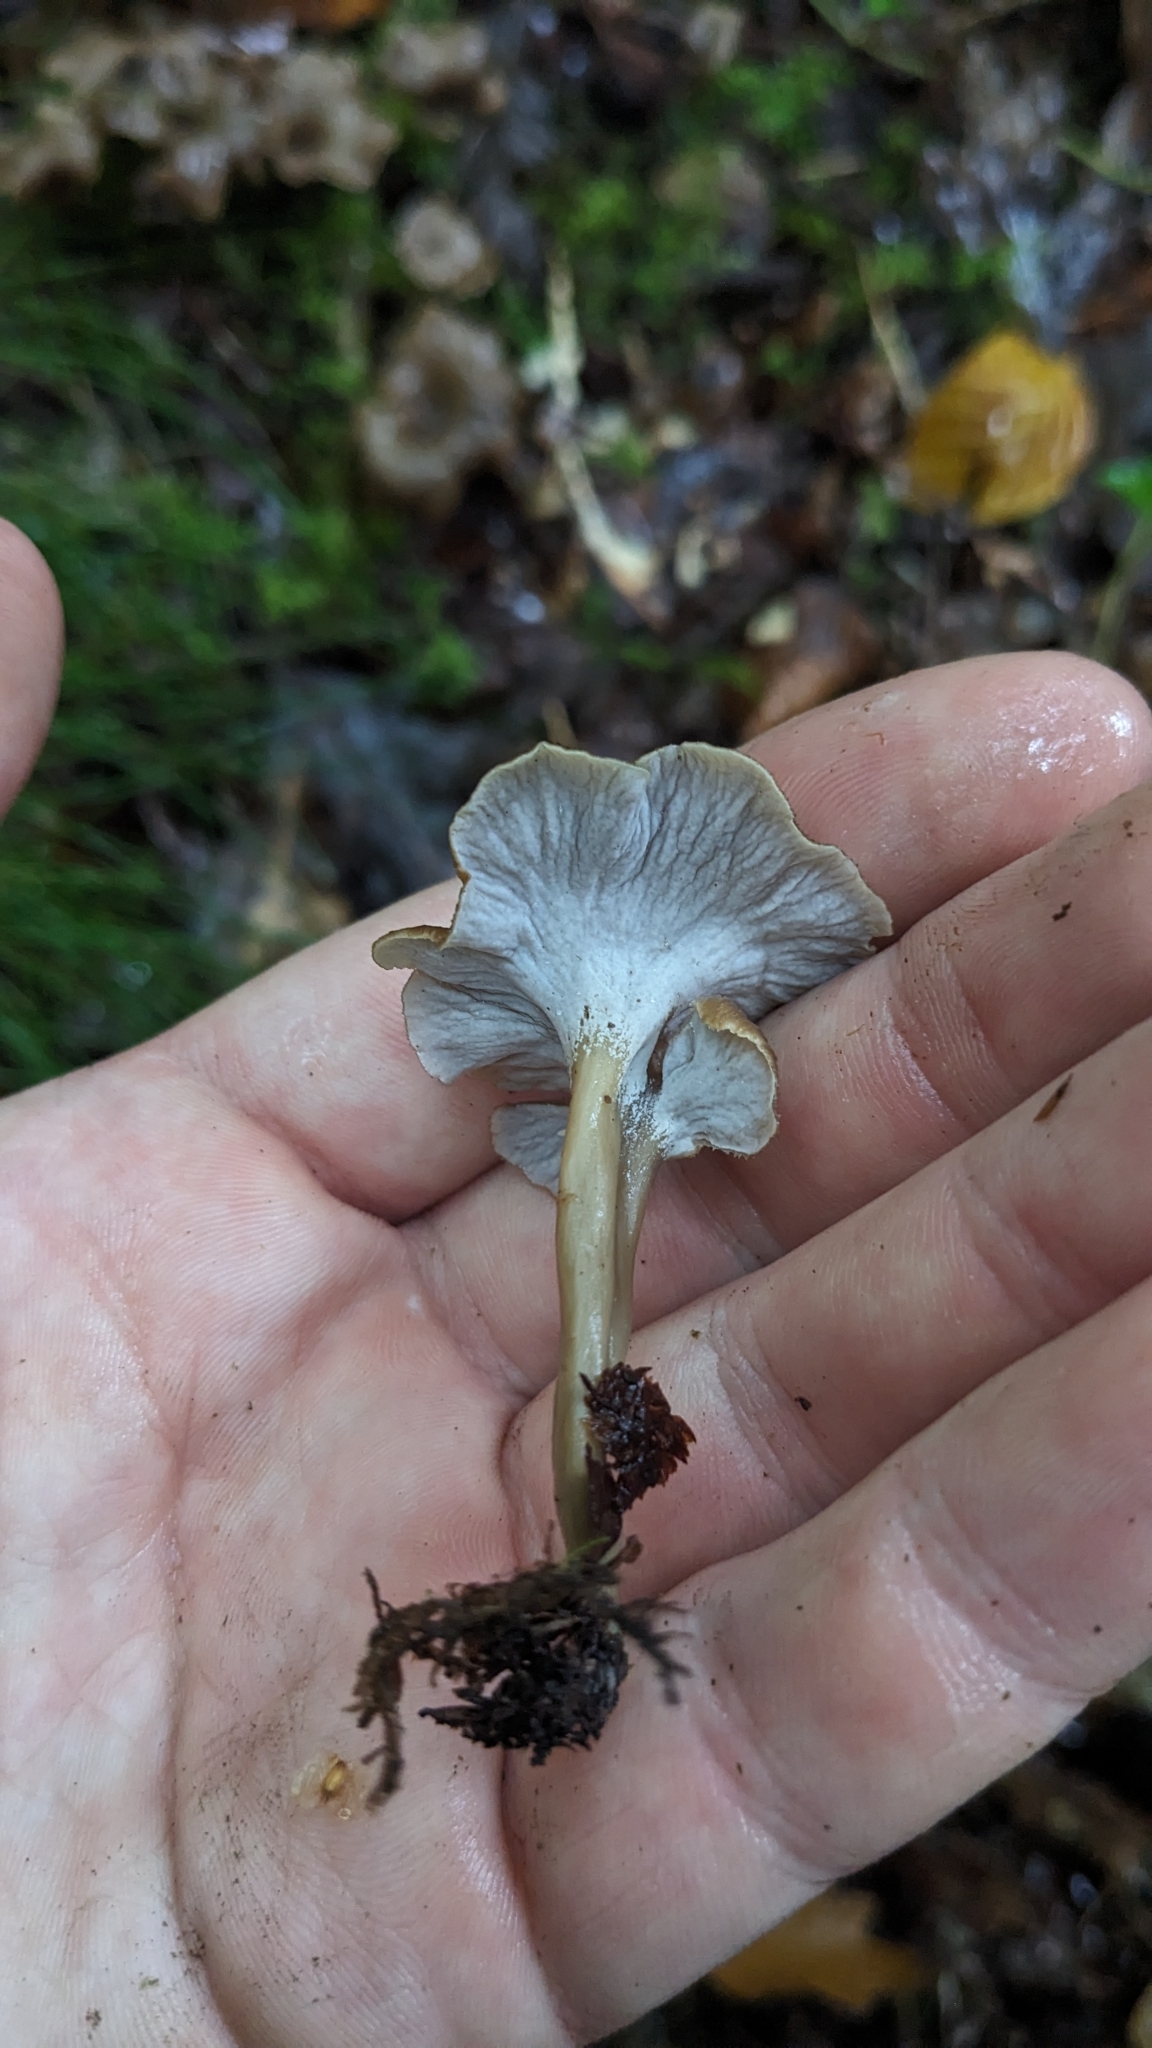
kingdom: Fungi
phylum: Basidiomycota
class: Agaricomycetes
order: Cantharellales
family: Hydnaceae
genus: Craterellus
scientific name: Craterellus undulatus
